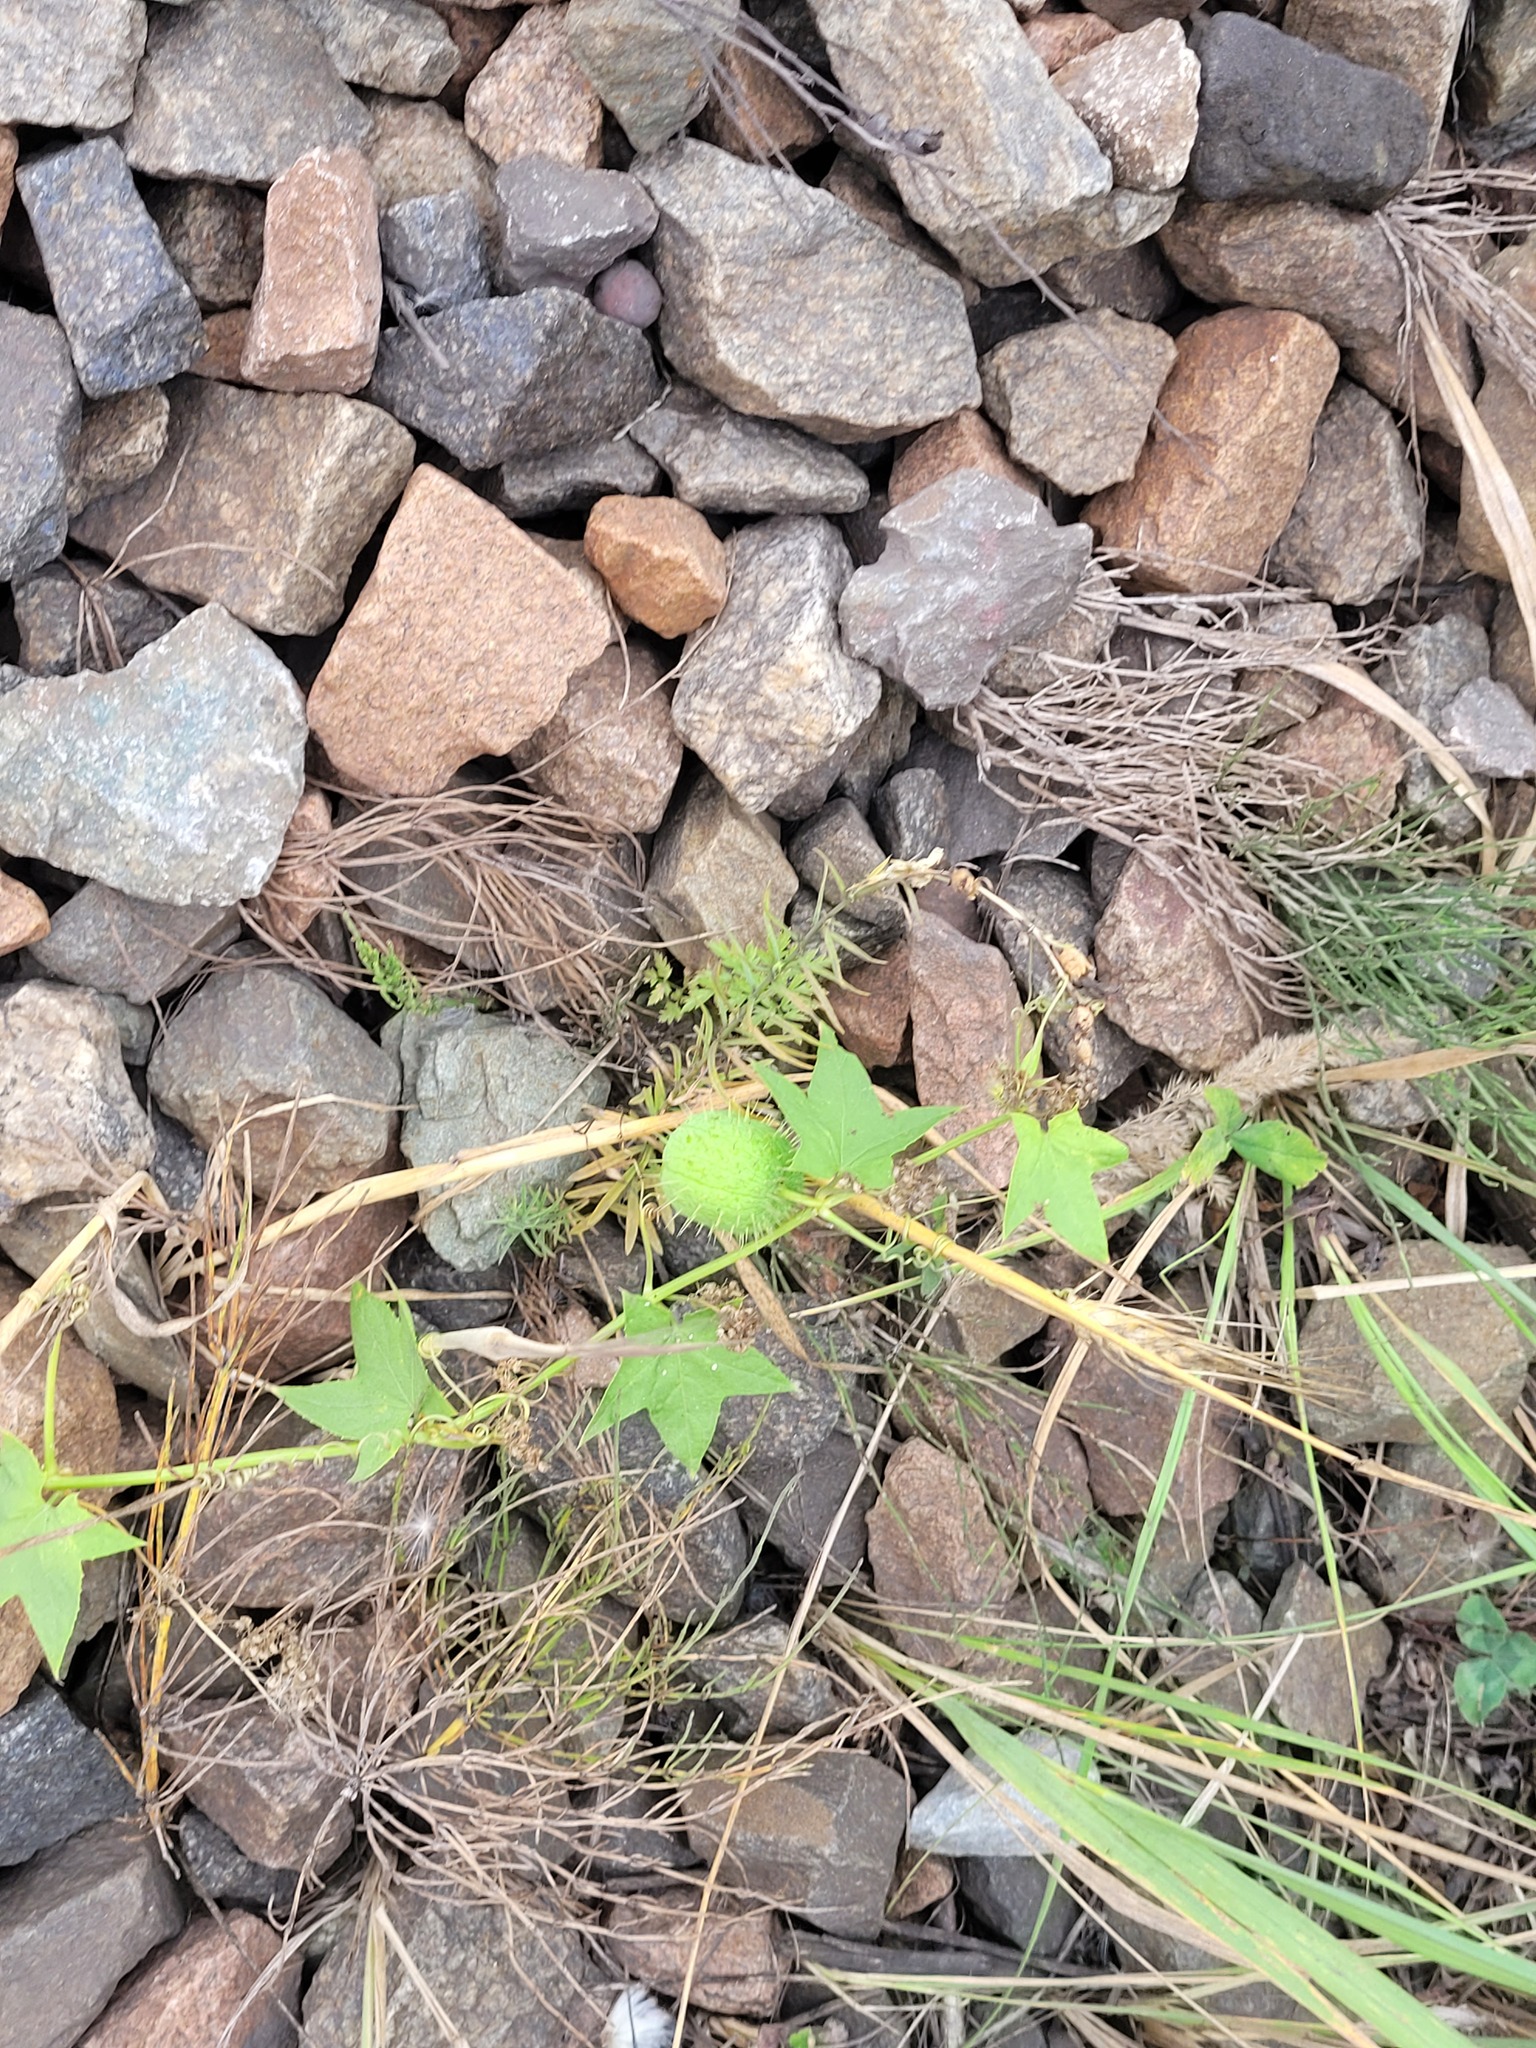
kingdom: Plantae
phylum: Tracheophyta
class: Magnoliopsida
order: Cucurbitales
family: Cucurbitaceae
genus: Echinocystis
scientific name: Echinocystis lobata
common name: Wild cucumber
